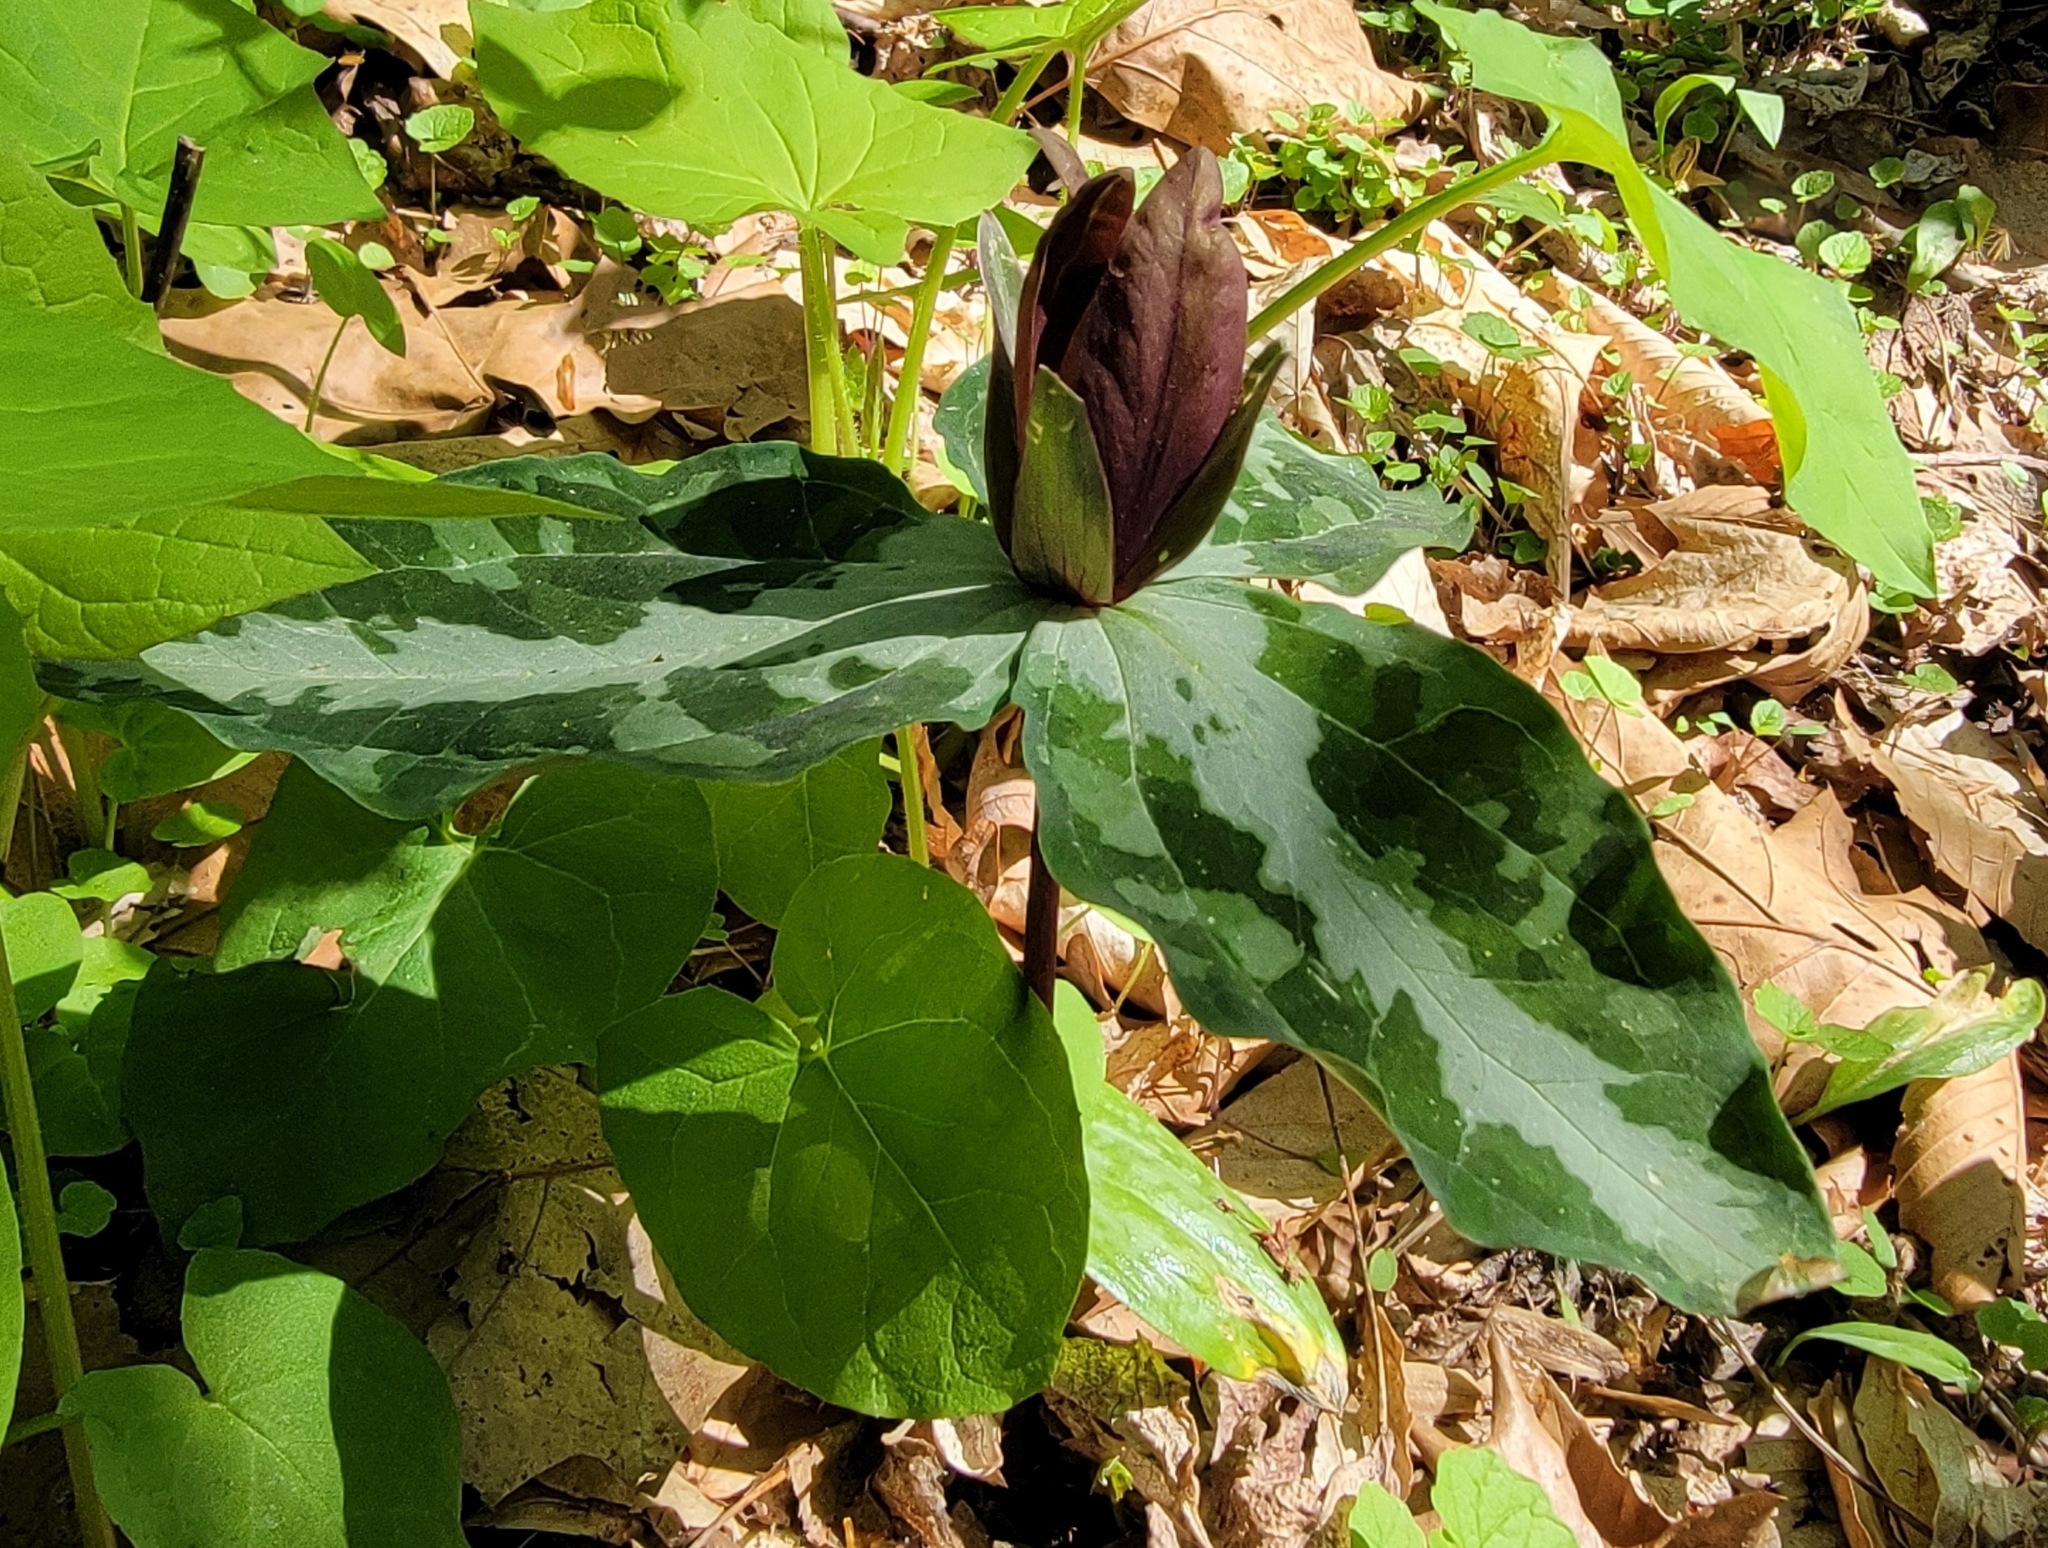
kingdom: Plantae
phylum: Tracheophyta
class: Liliopsida
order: Liliales
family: Melanthiaceae
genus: Trillium
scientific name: Trillium cuneatum
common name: Cuneate trillium
